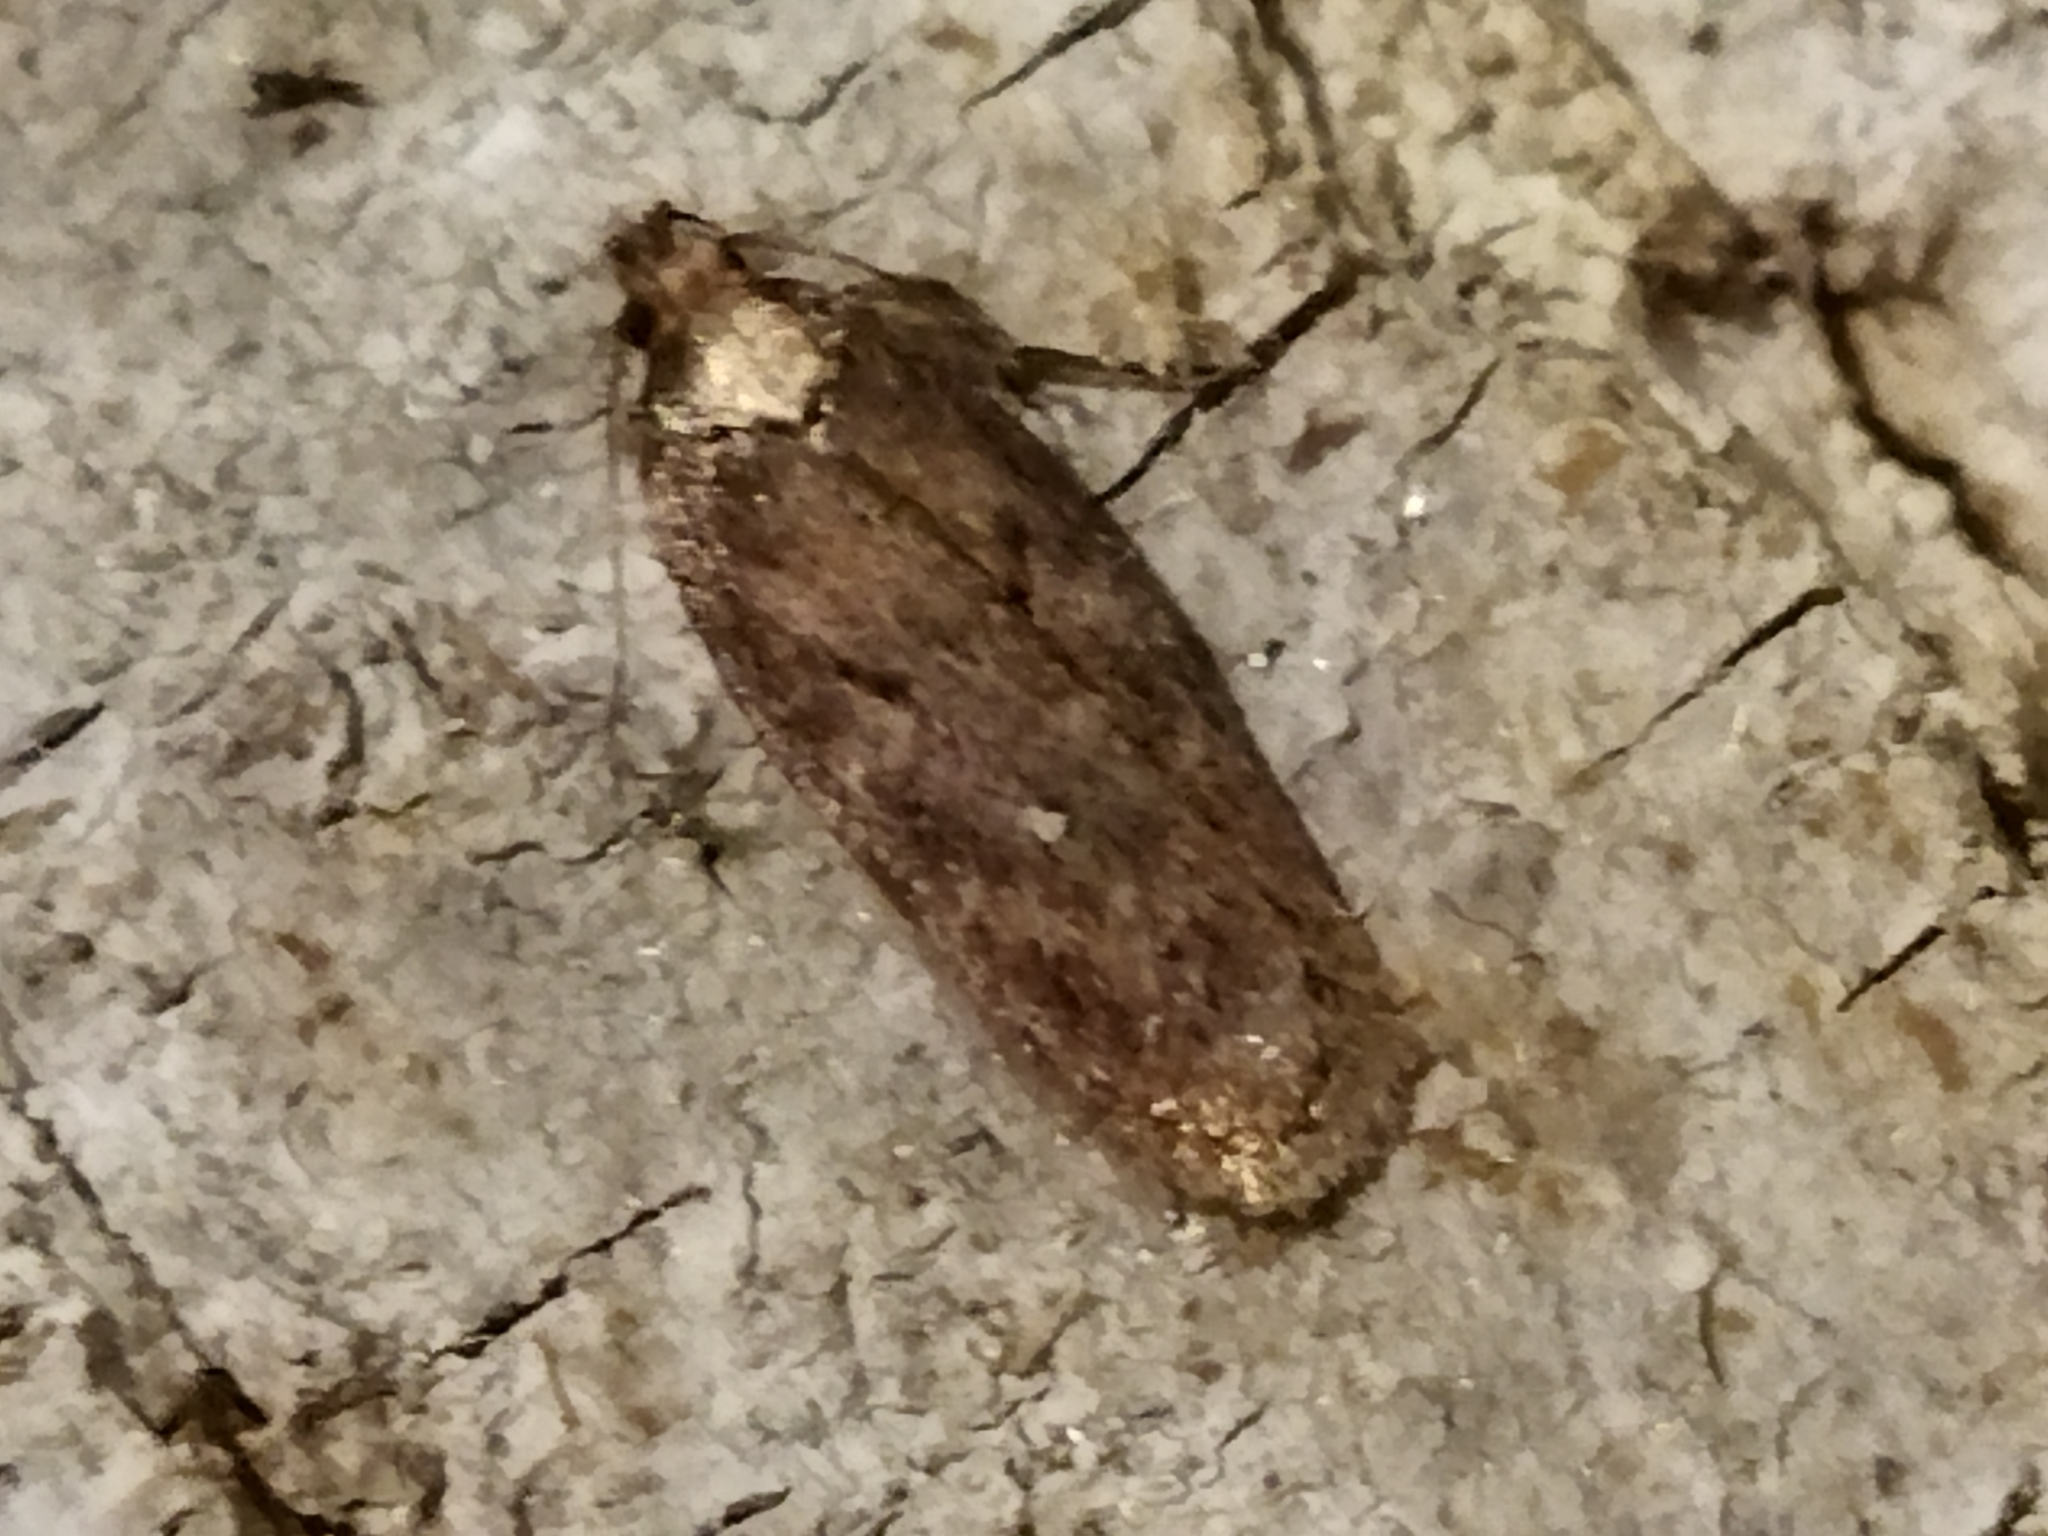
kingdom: Animalia
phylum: Arthropoda
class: Insecta
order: Lepidoptera
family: Depressariidae
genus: Depressaria
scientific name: Depressaria albipunctella
